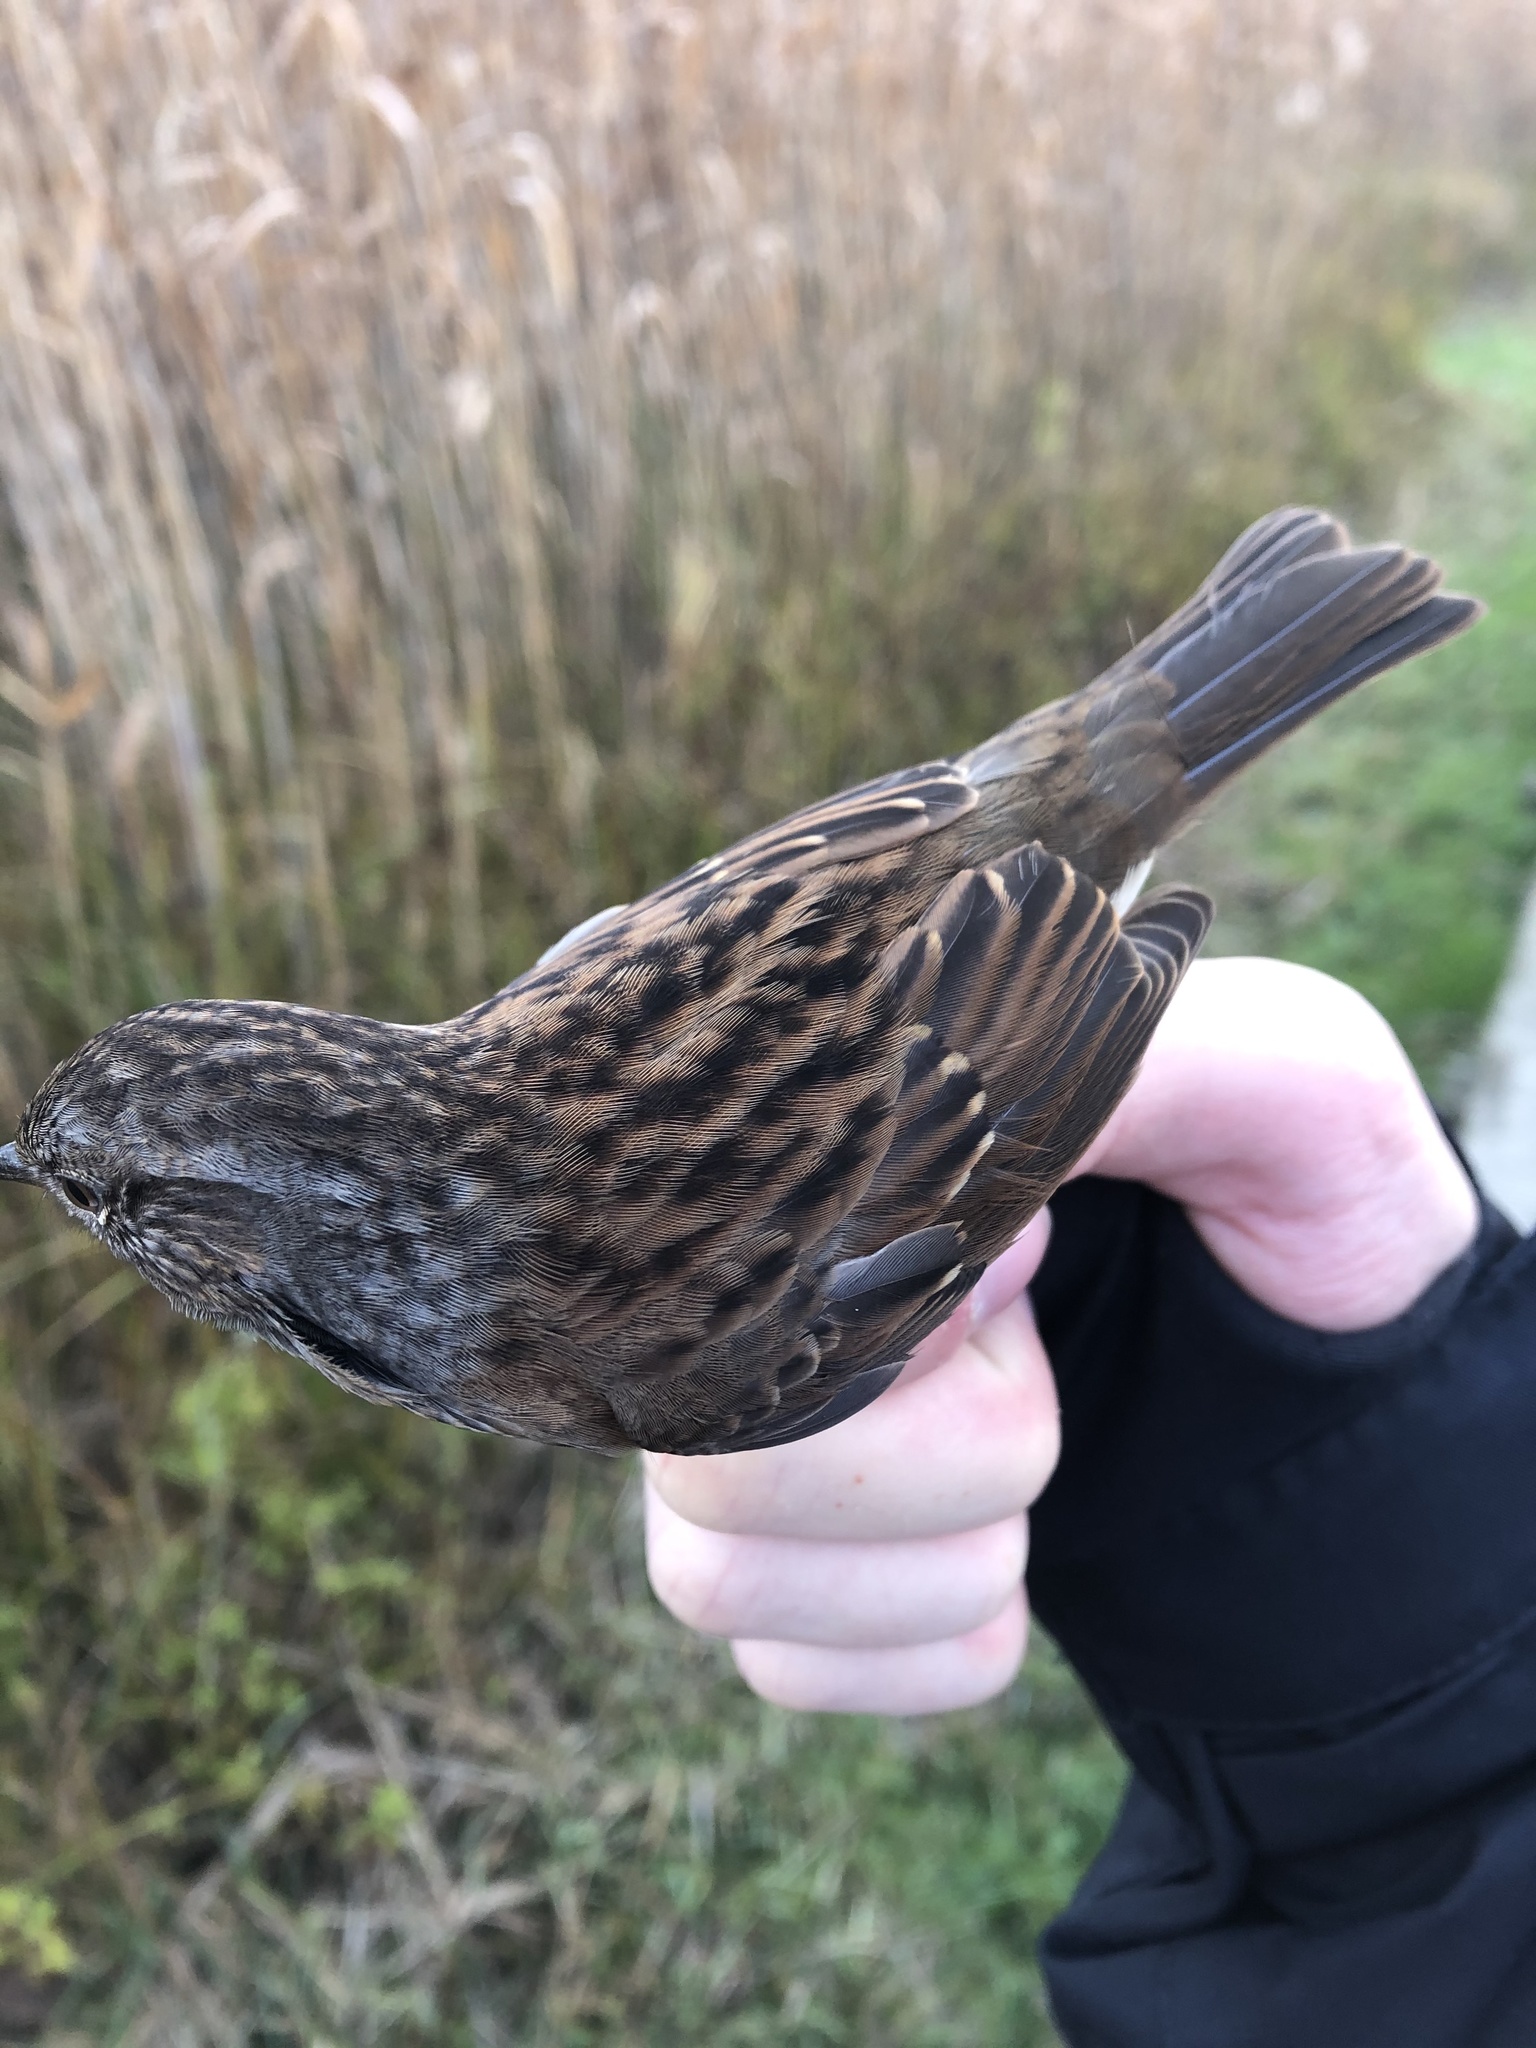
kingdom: Animalia
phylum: Chordata
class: Aves
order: Passeriformes
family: Prunellidae
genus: Prunella
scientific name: Prunella modularis
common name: Dunnock
